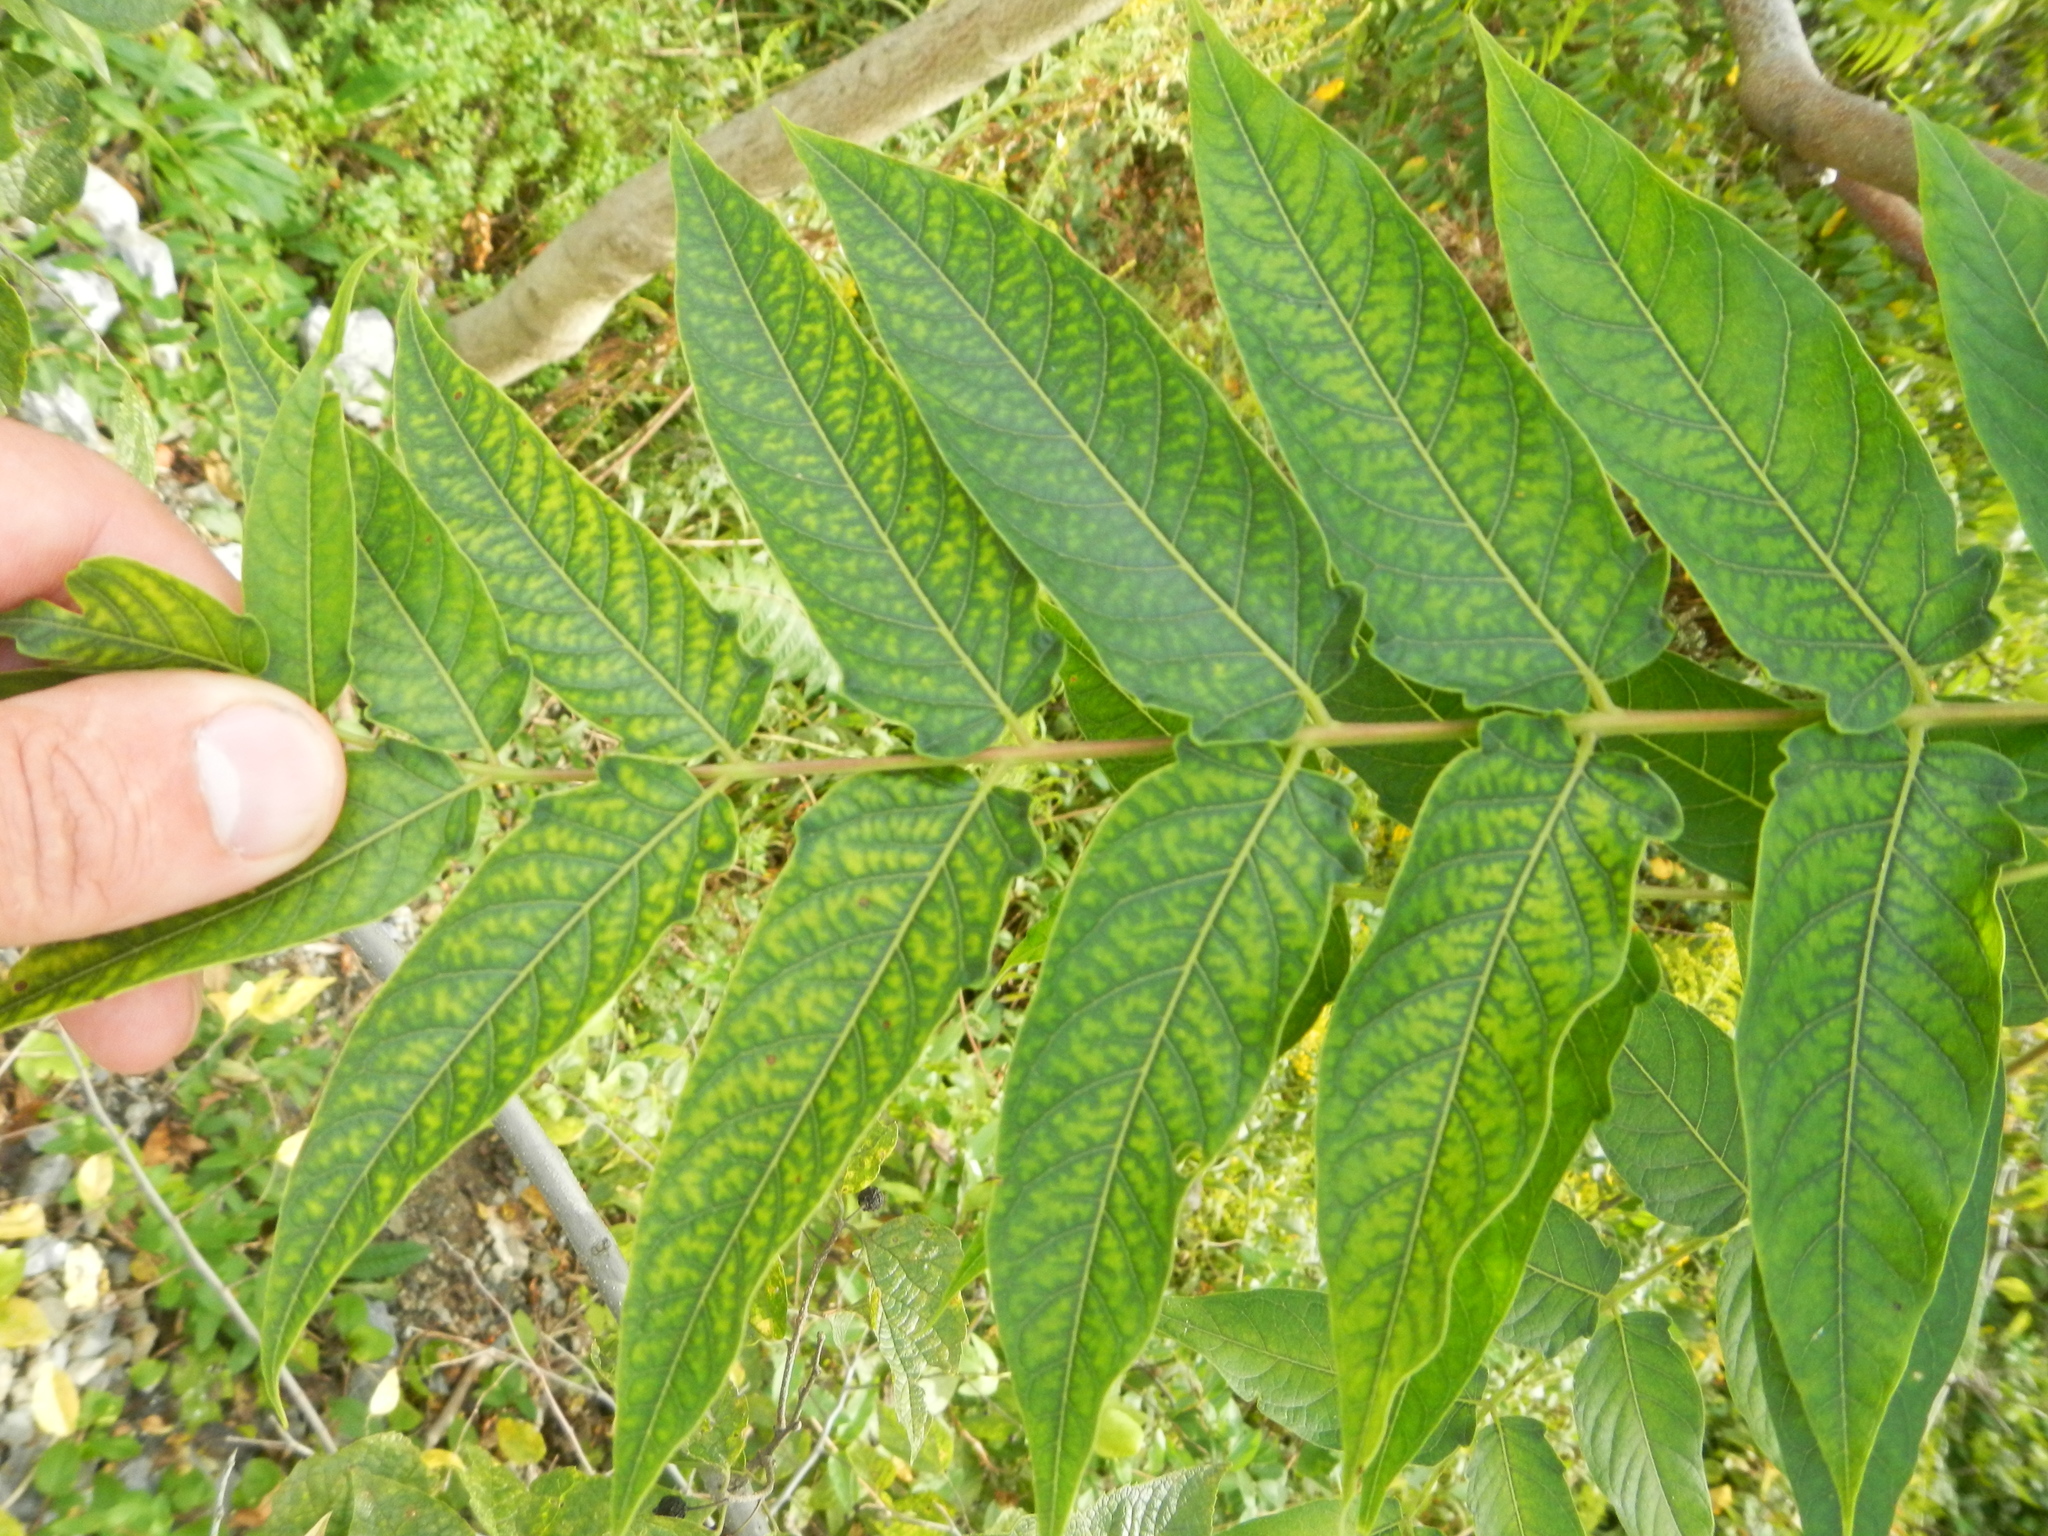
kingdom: Plantae
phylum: Tracheophyta
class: Magnoliopsida
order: Sapindales
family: Simaroubaceae
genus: Ailanthus
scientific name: Ailanthus altissima
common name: Tree-of-heaven
